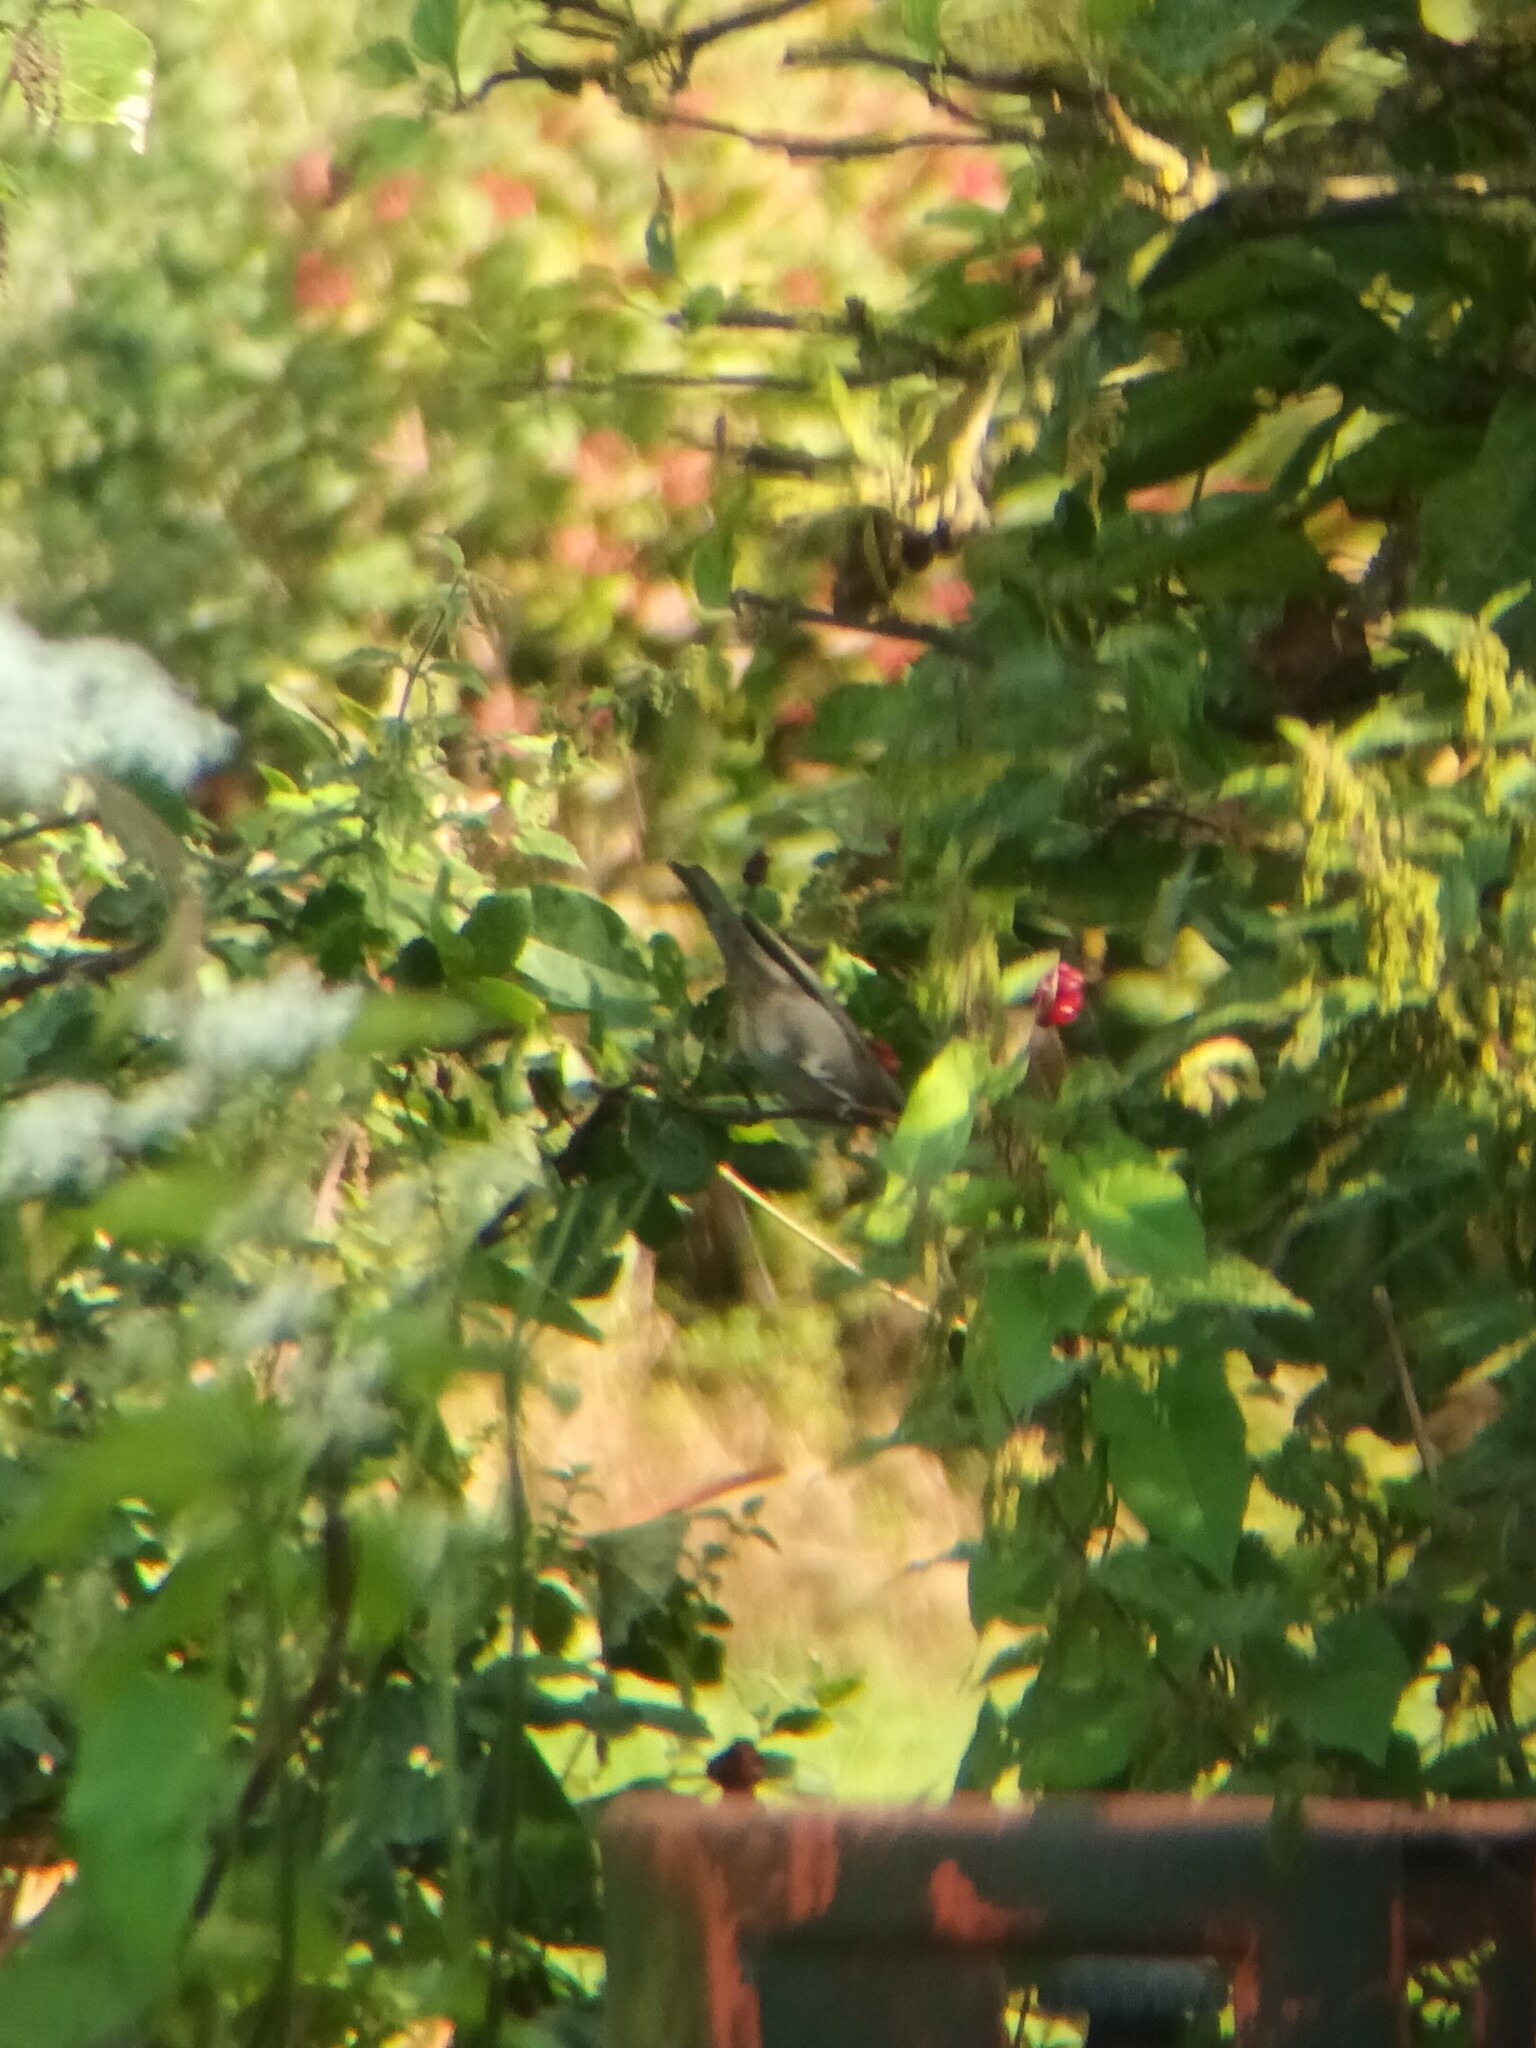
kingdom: Animalia
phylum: Chordata
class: Aves
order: Passeriformes
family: Sylviidae
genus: Sylvia
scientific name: Sylvia nisoria
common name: Barred warbler
